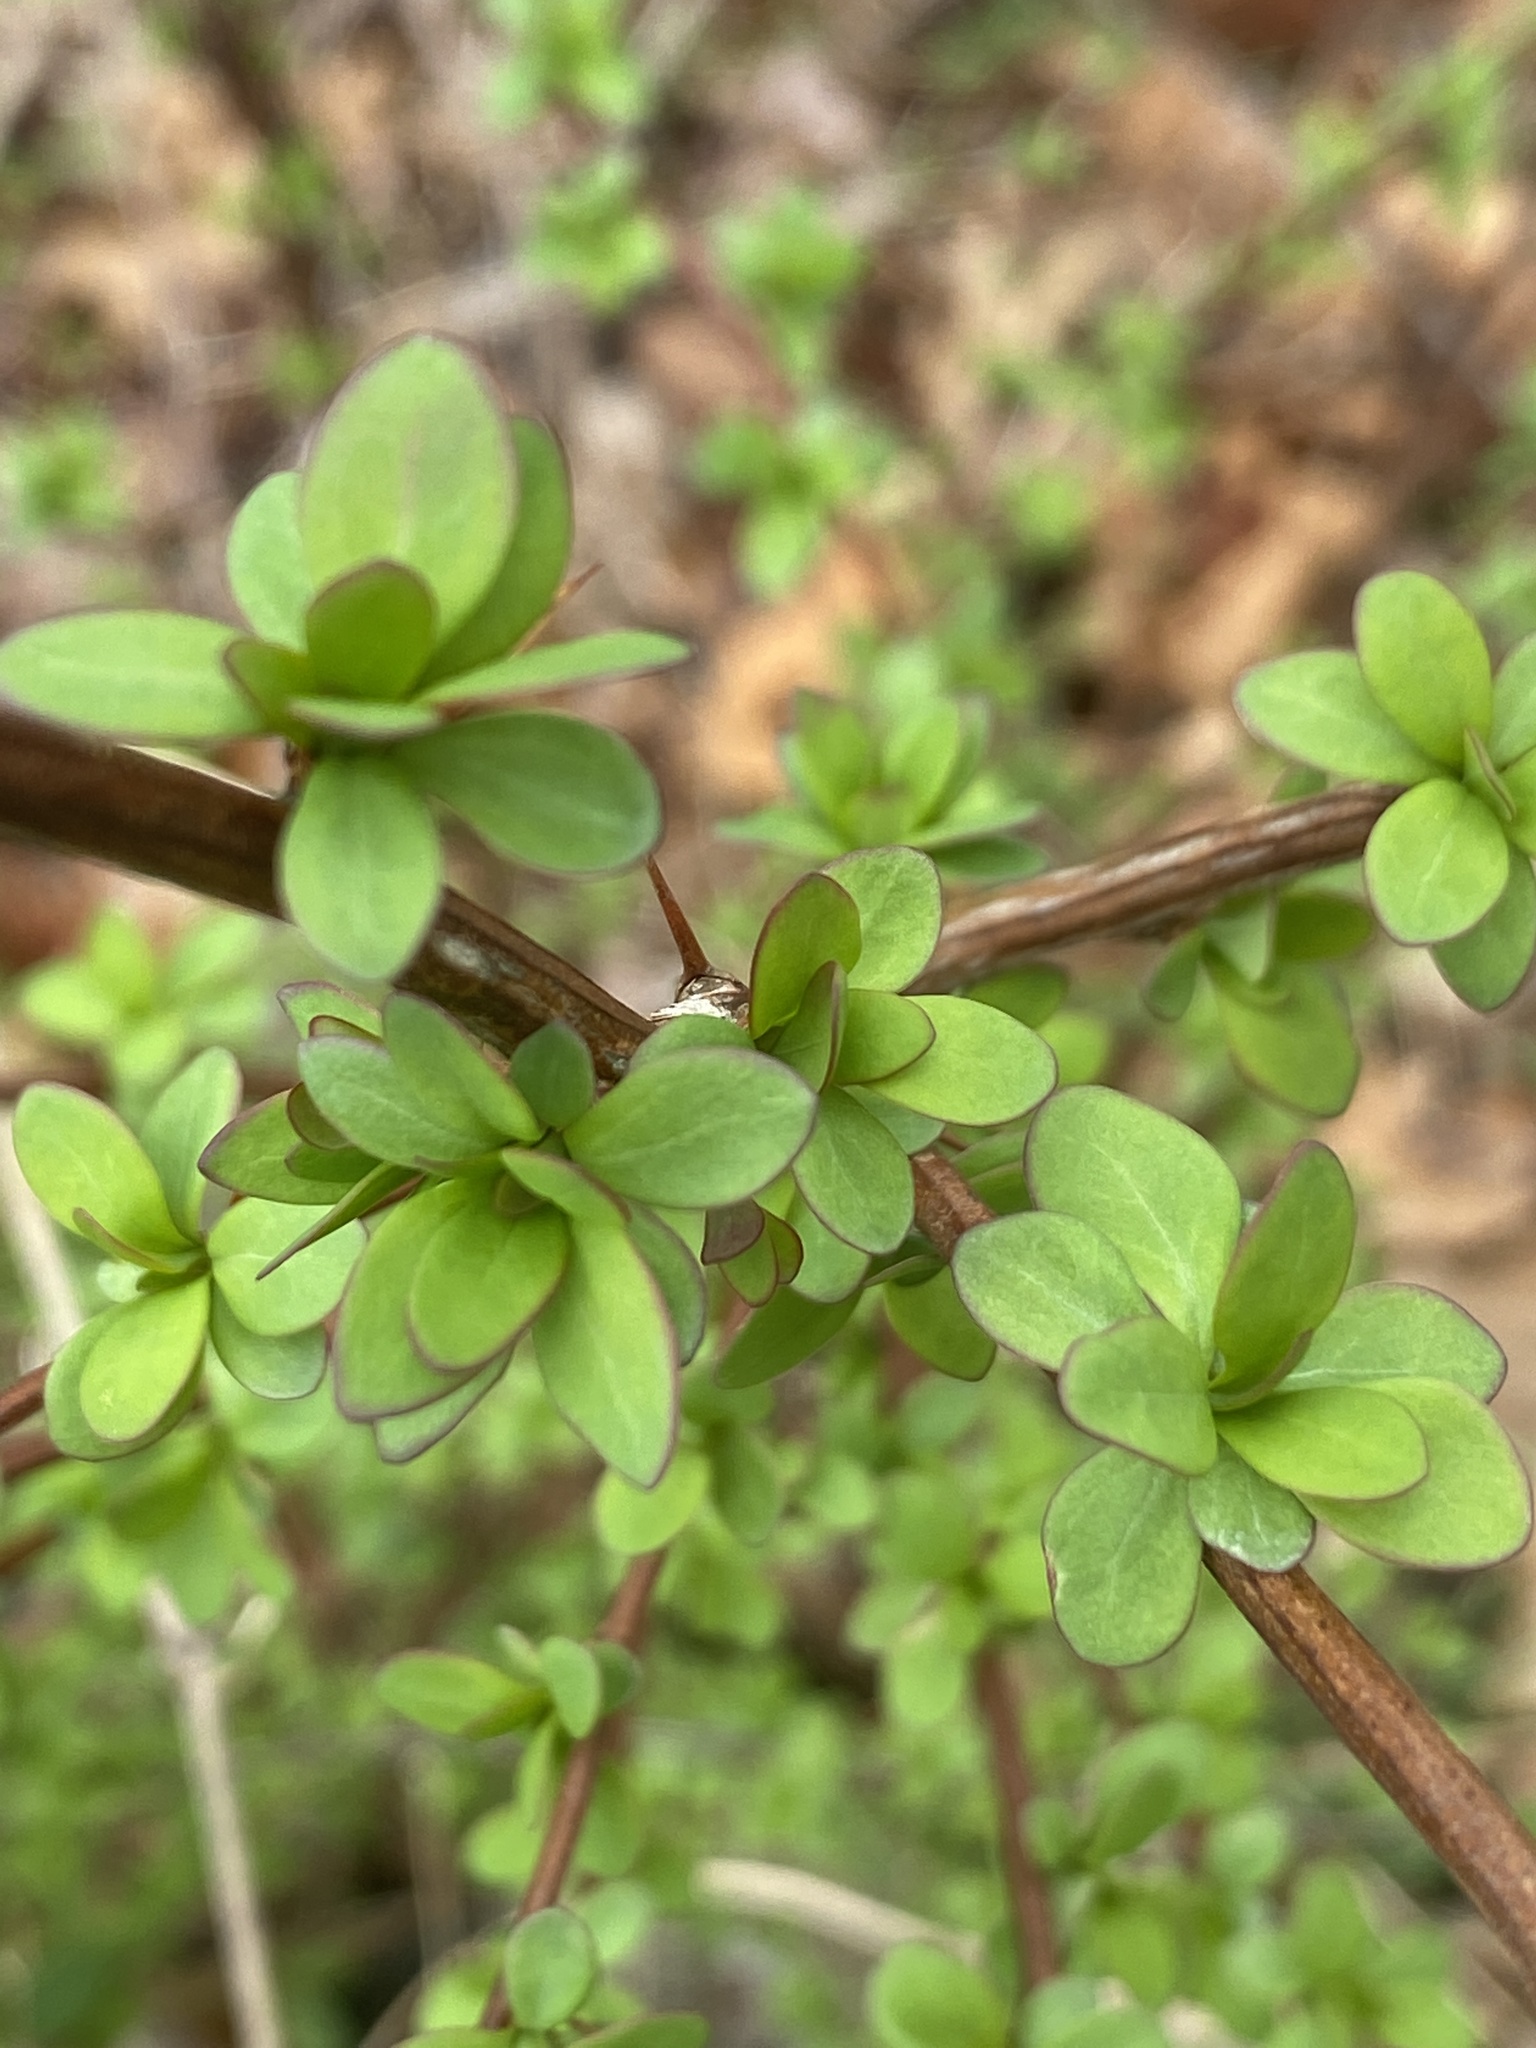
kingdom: Plantae
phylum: Tracheophyta
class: Magnoliopsida
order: Ranunculales
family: Berberidaceae
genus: Berberis
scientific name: Berberis thunbergii
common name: Japanese barberry
